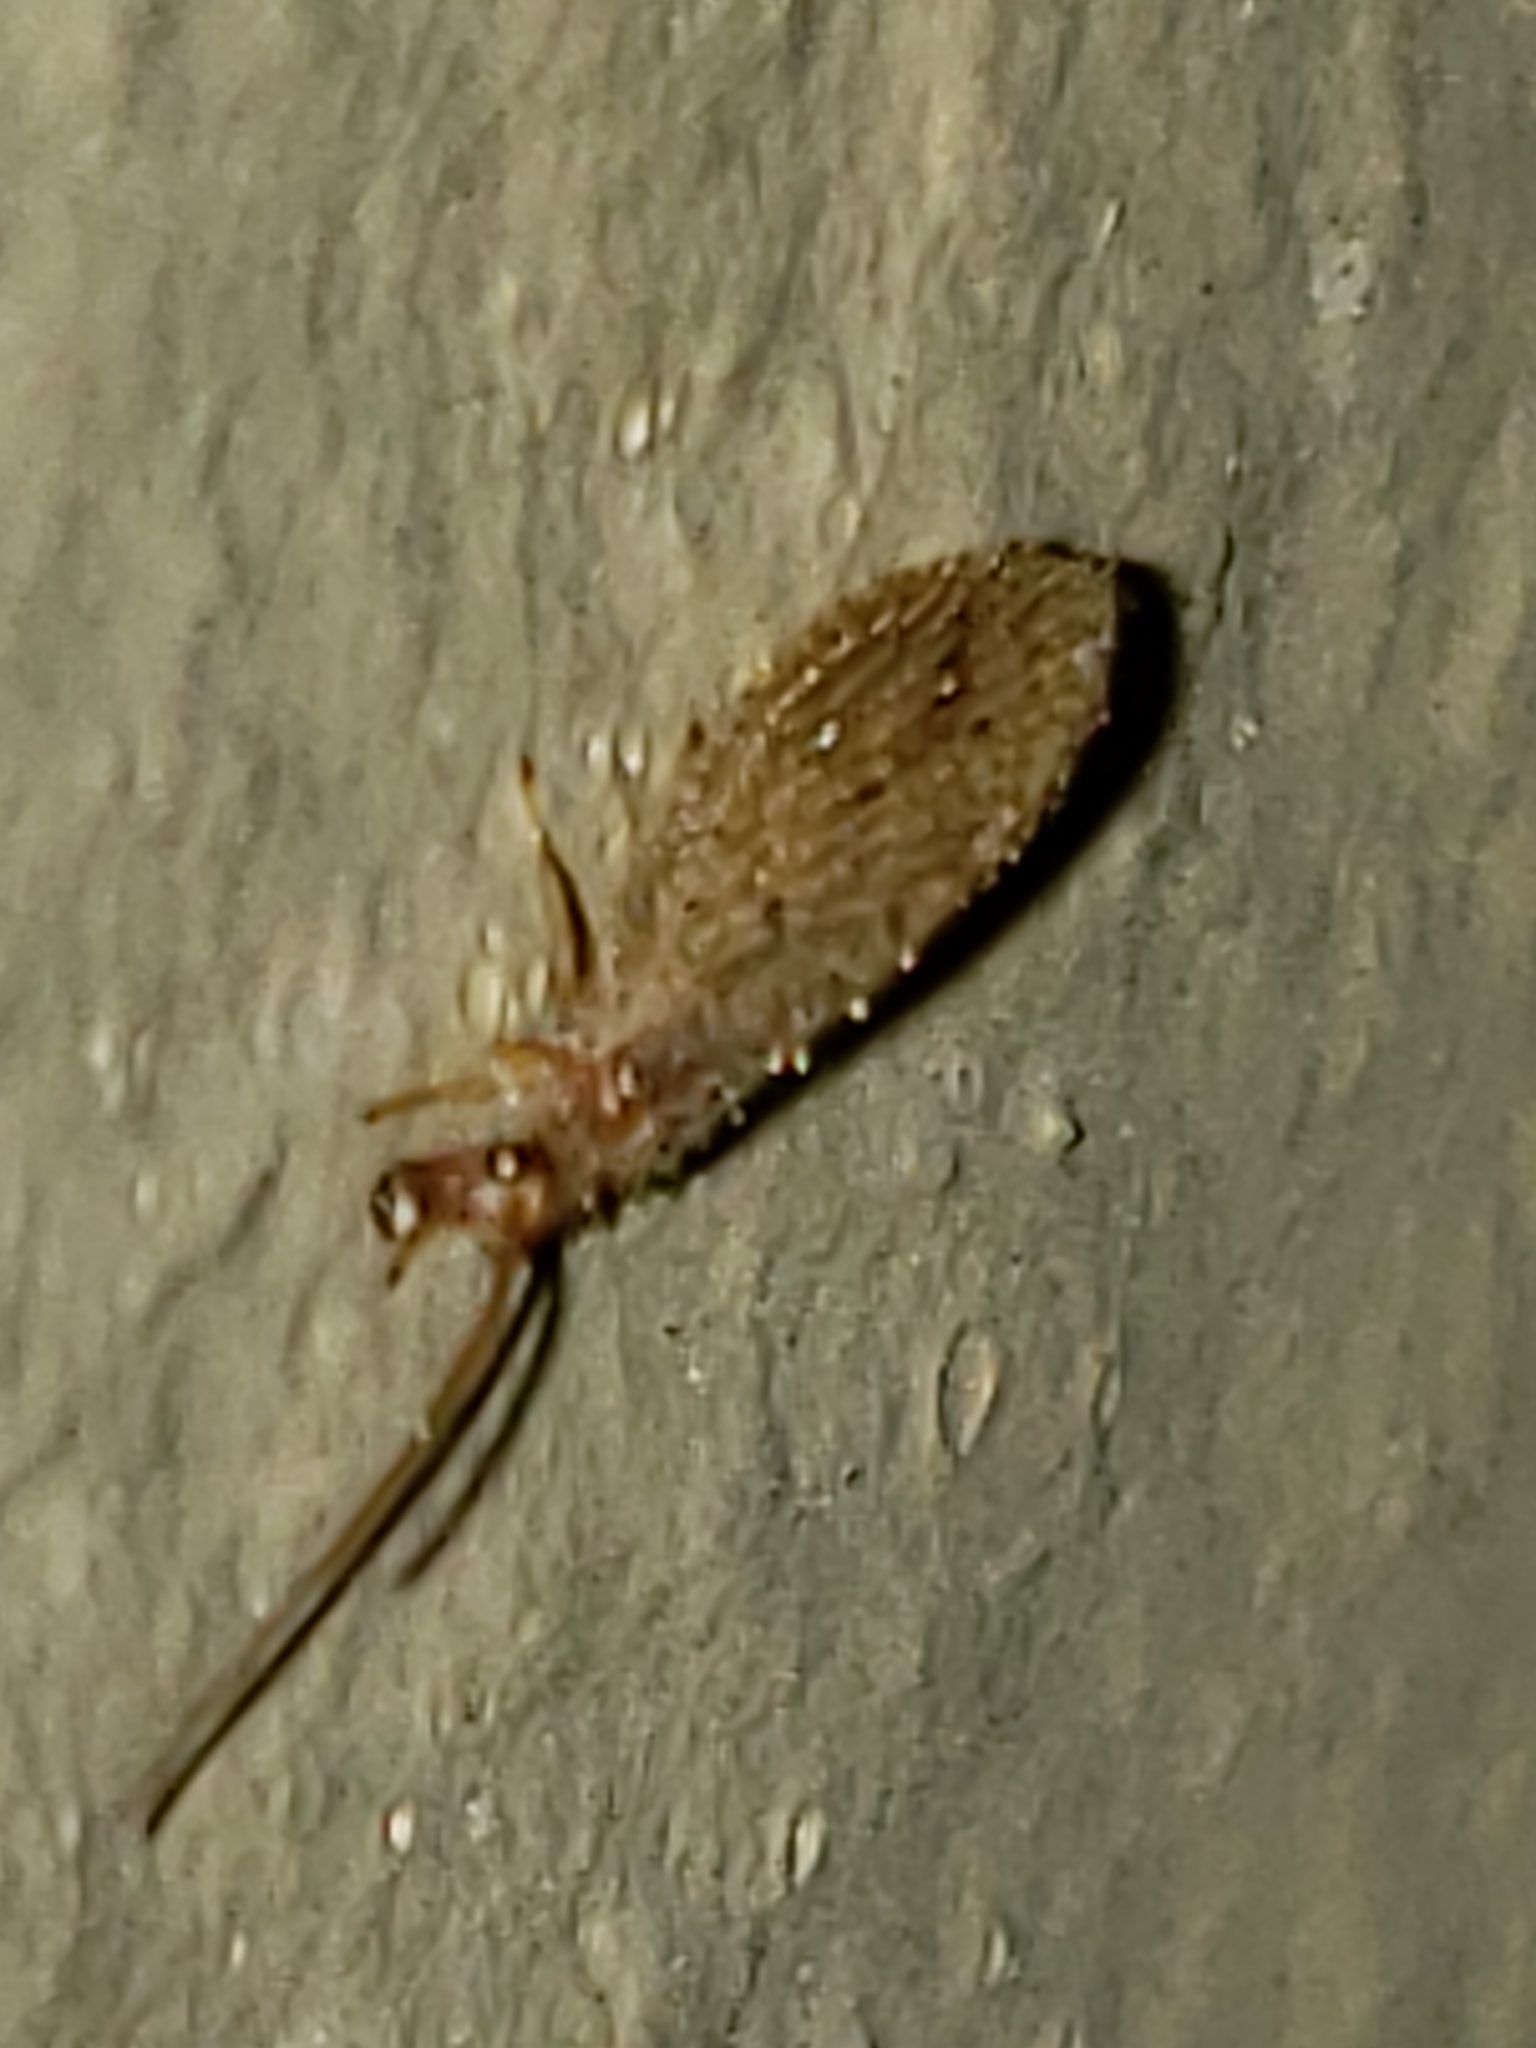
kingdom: Animalia
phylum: Arthropoda
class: Insecta
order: Neuroptera
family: Hemerobiidae
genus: Micromus
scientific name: Micromus subanticus
